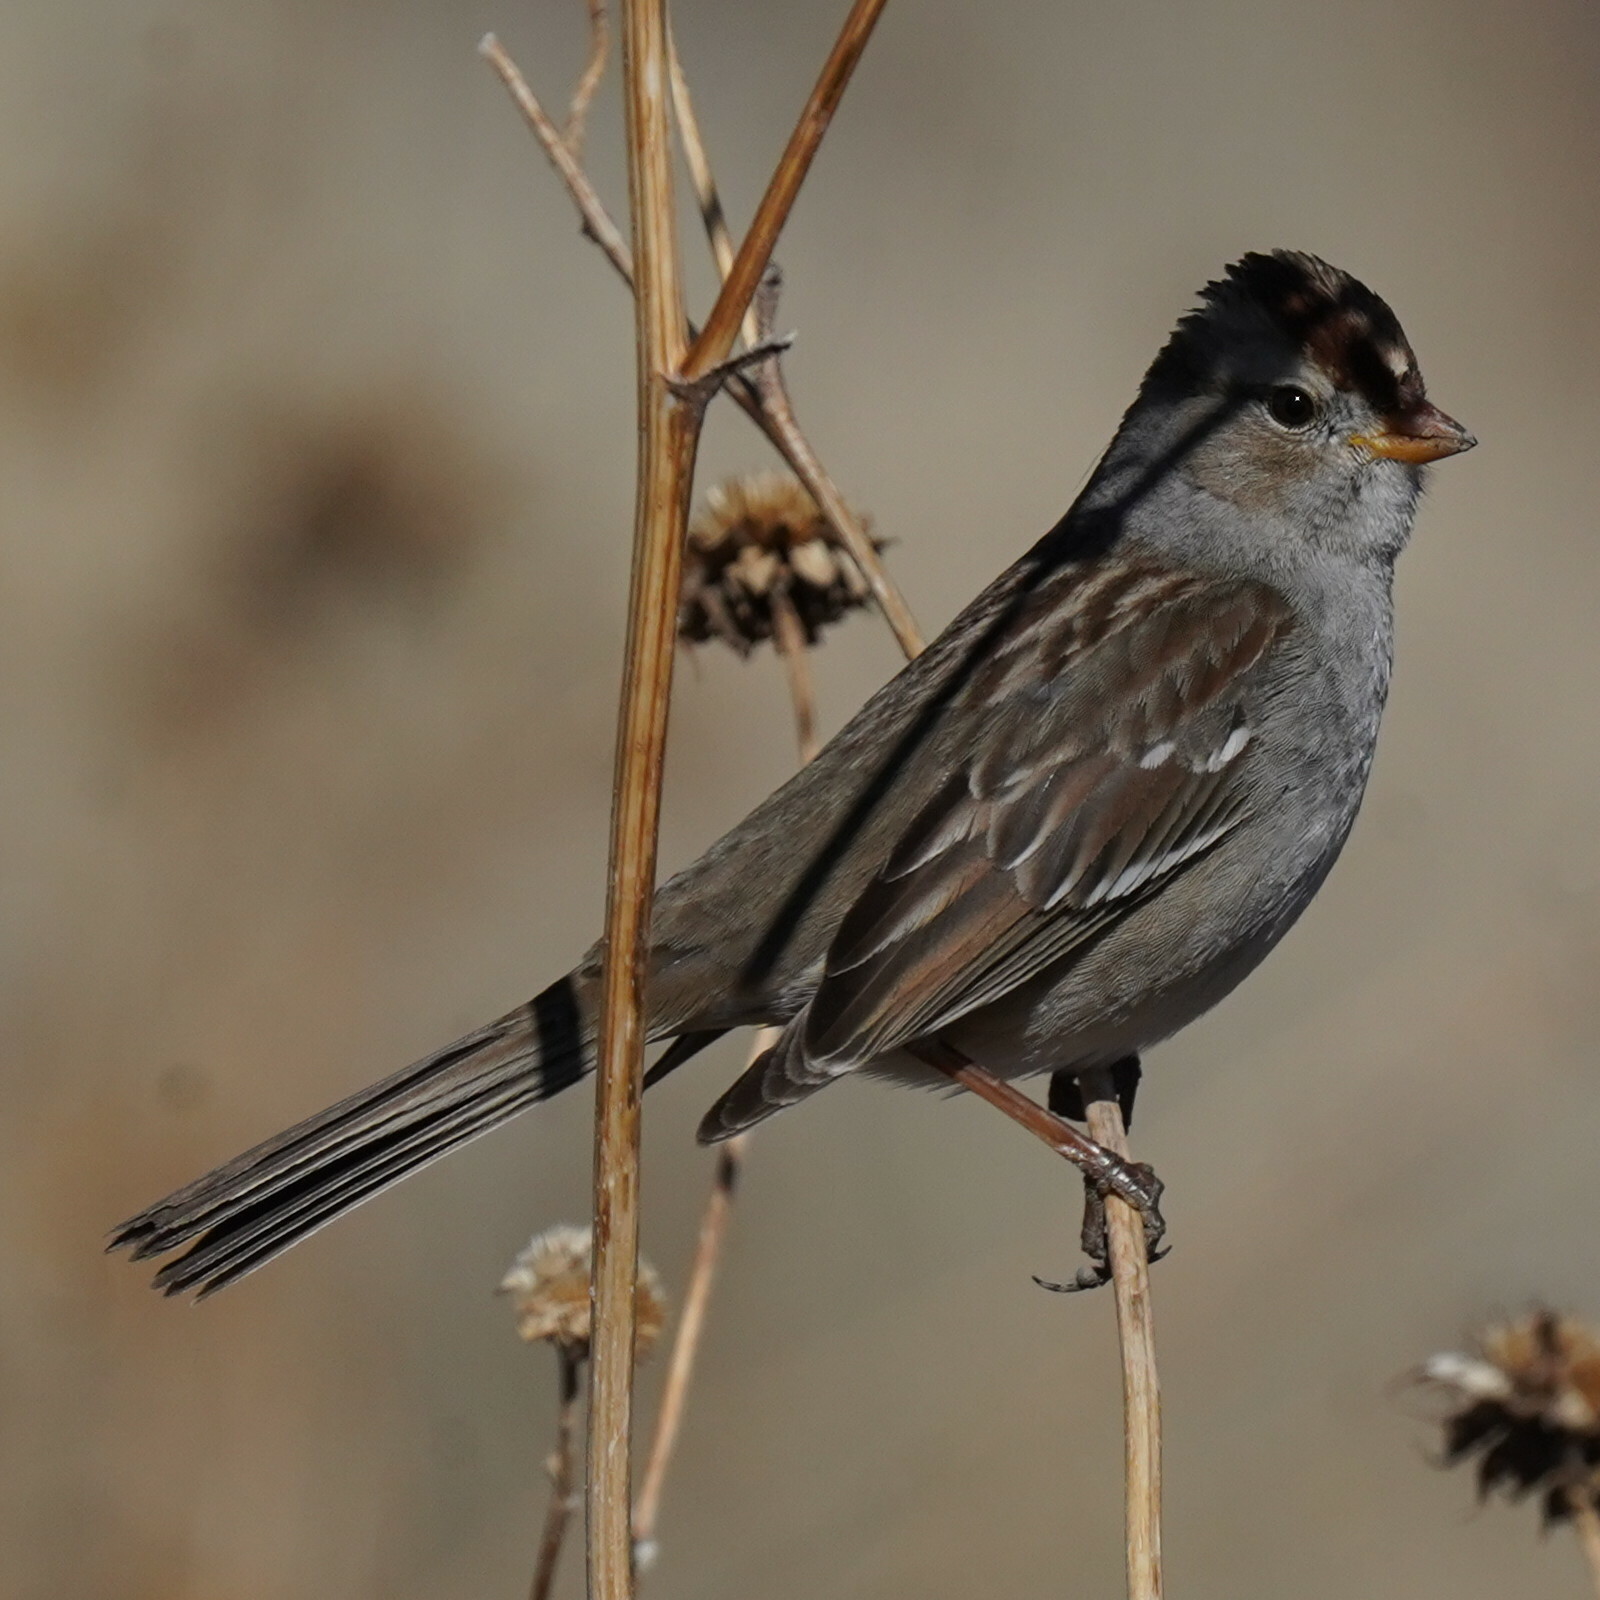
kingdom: Animalia
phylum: Chordata
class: Aves
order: Passeriformes
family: Passerellidae
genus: Zonotrichia
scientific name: Zonotrichia leucophrys
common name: White-crowned sparrow
